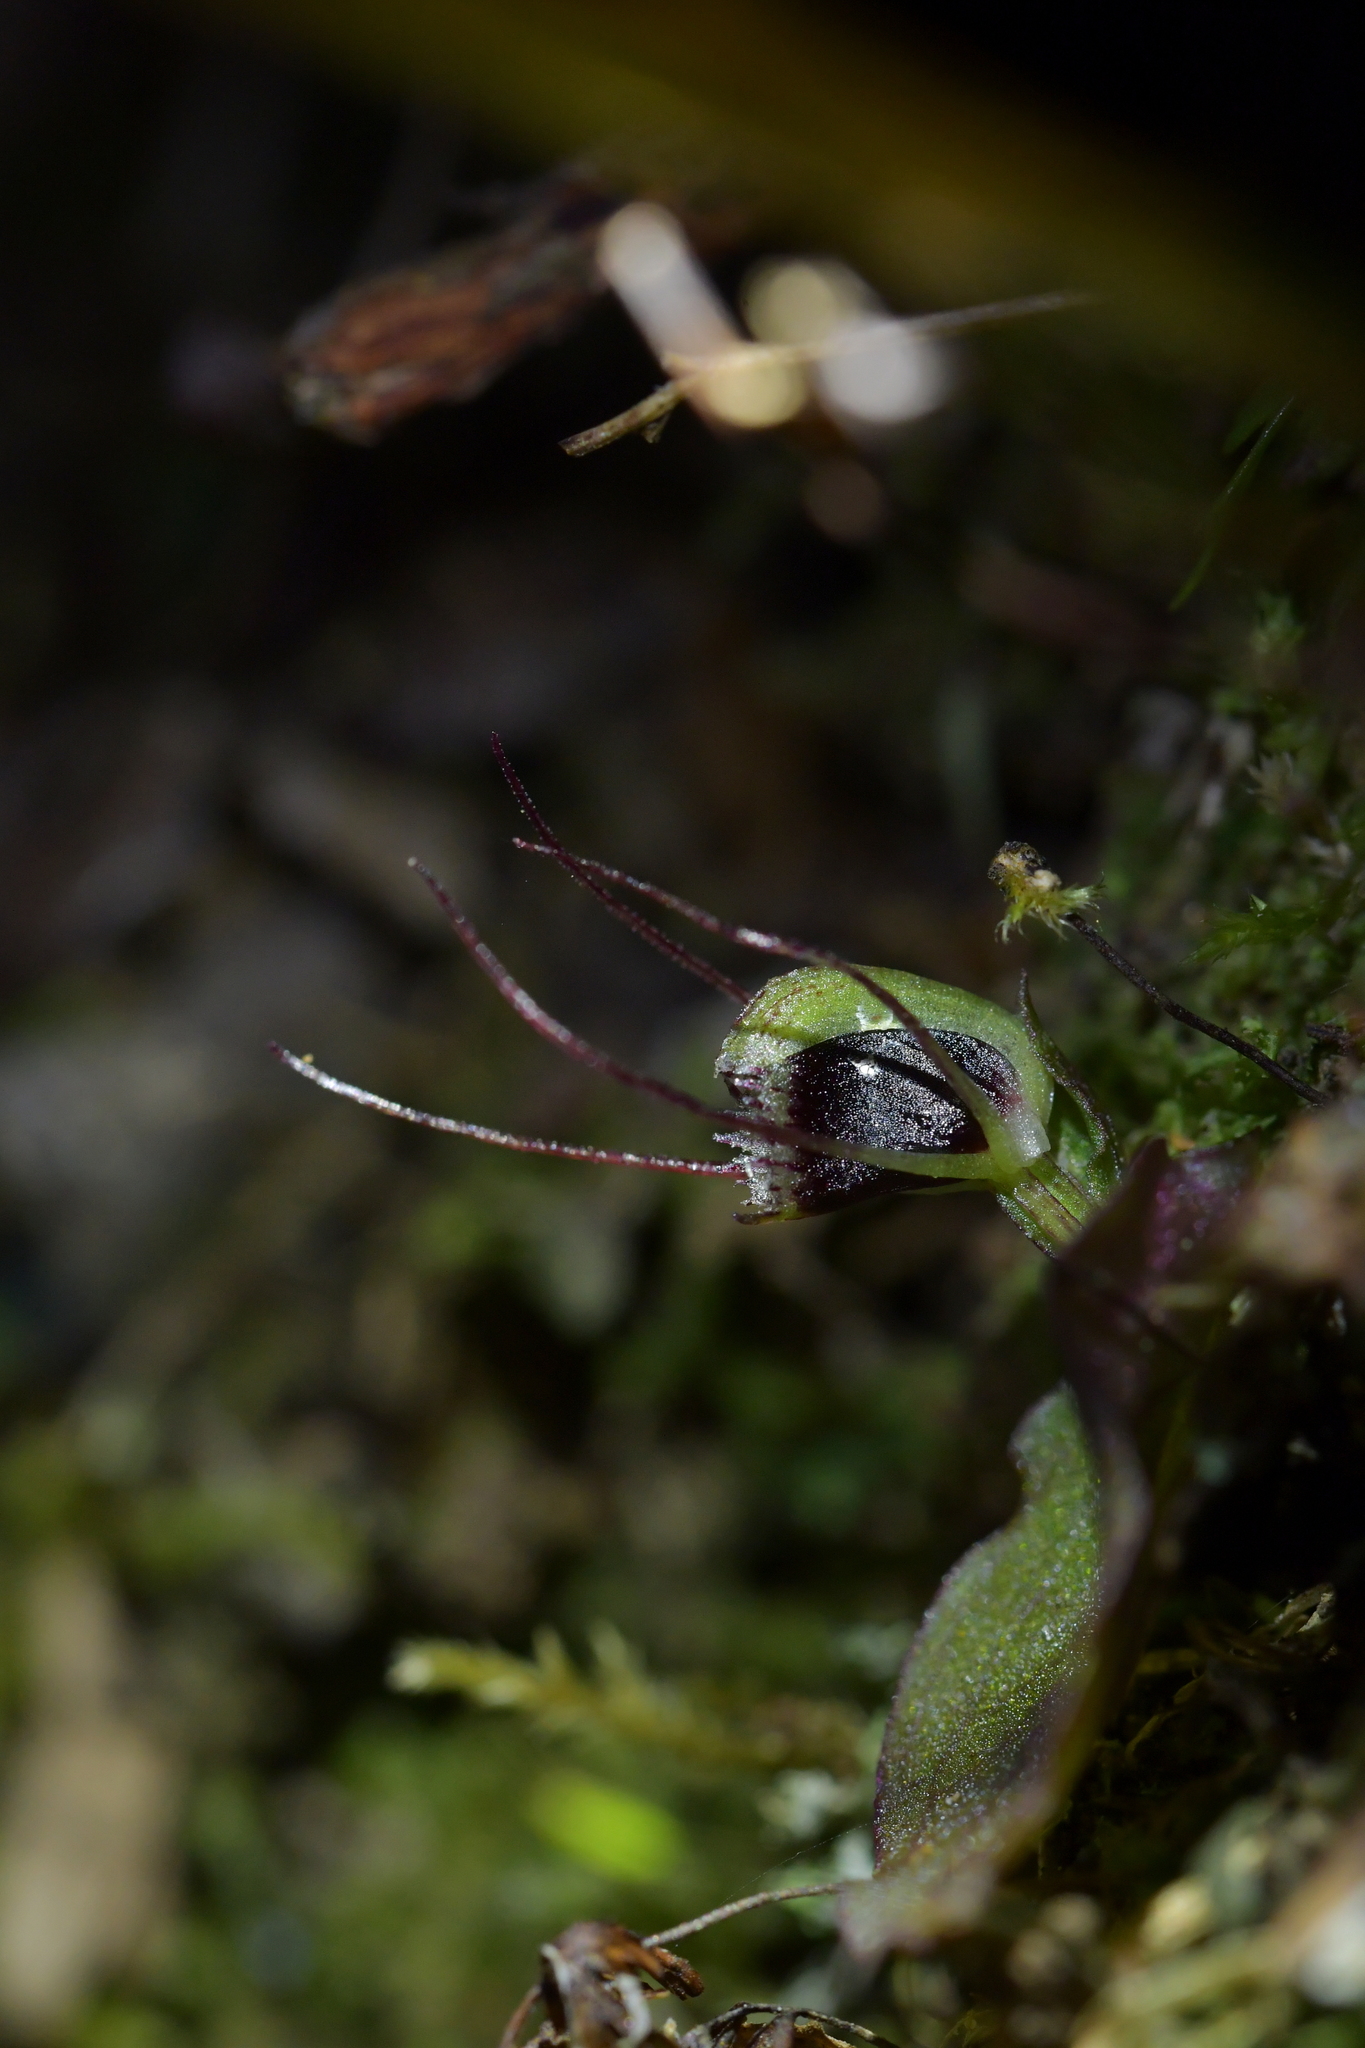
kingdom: Plantae
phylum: Tracheophyta
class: Liliopsida
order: Asparagales
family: Orchidaceae
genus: Corybas
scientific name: Corybas oblongus
